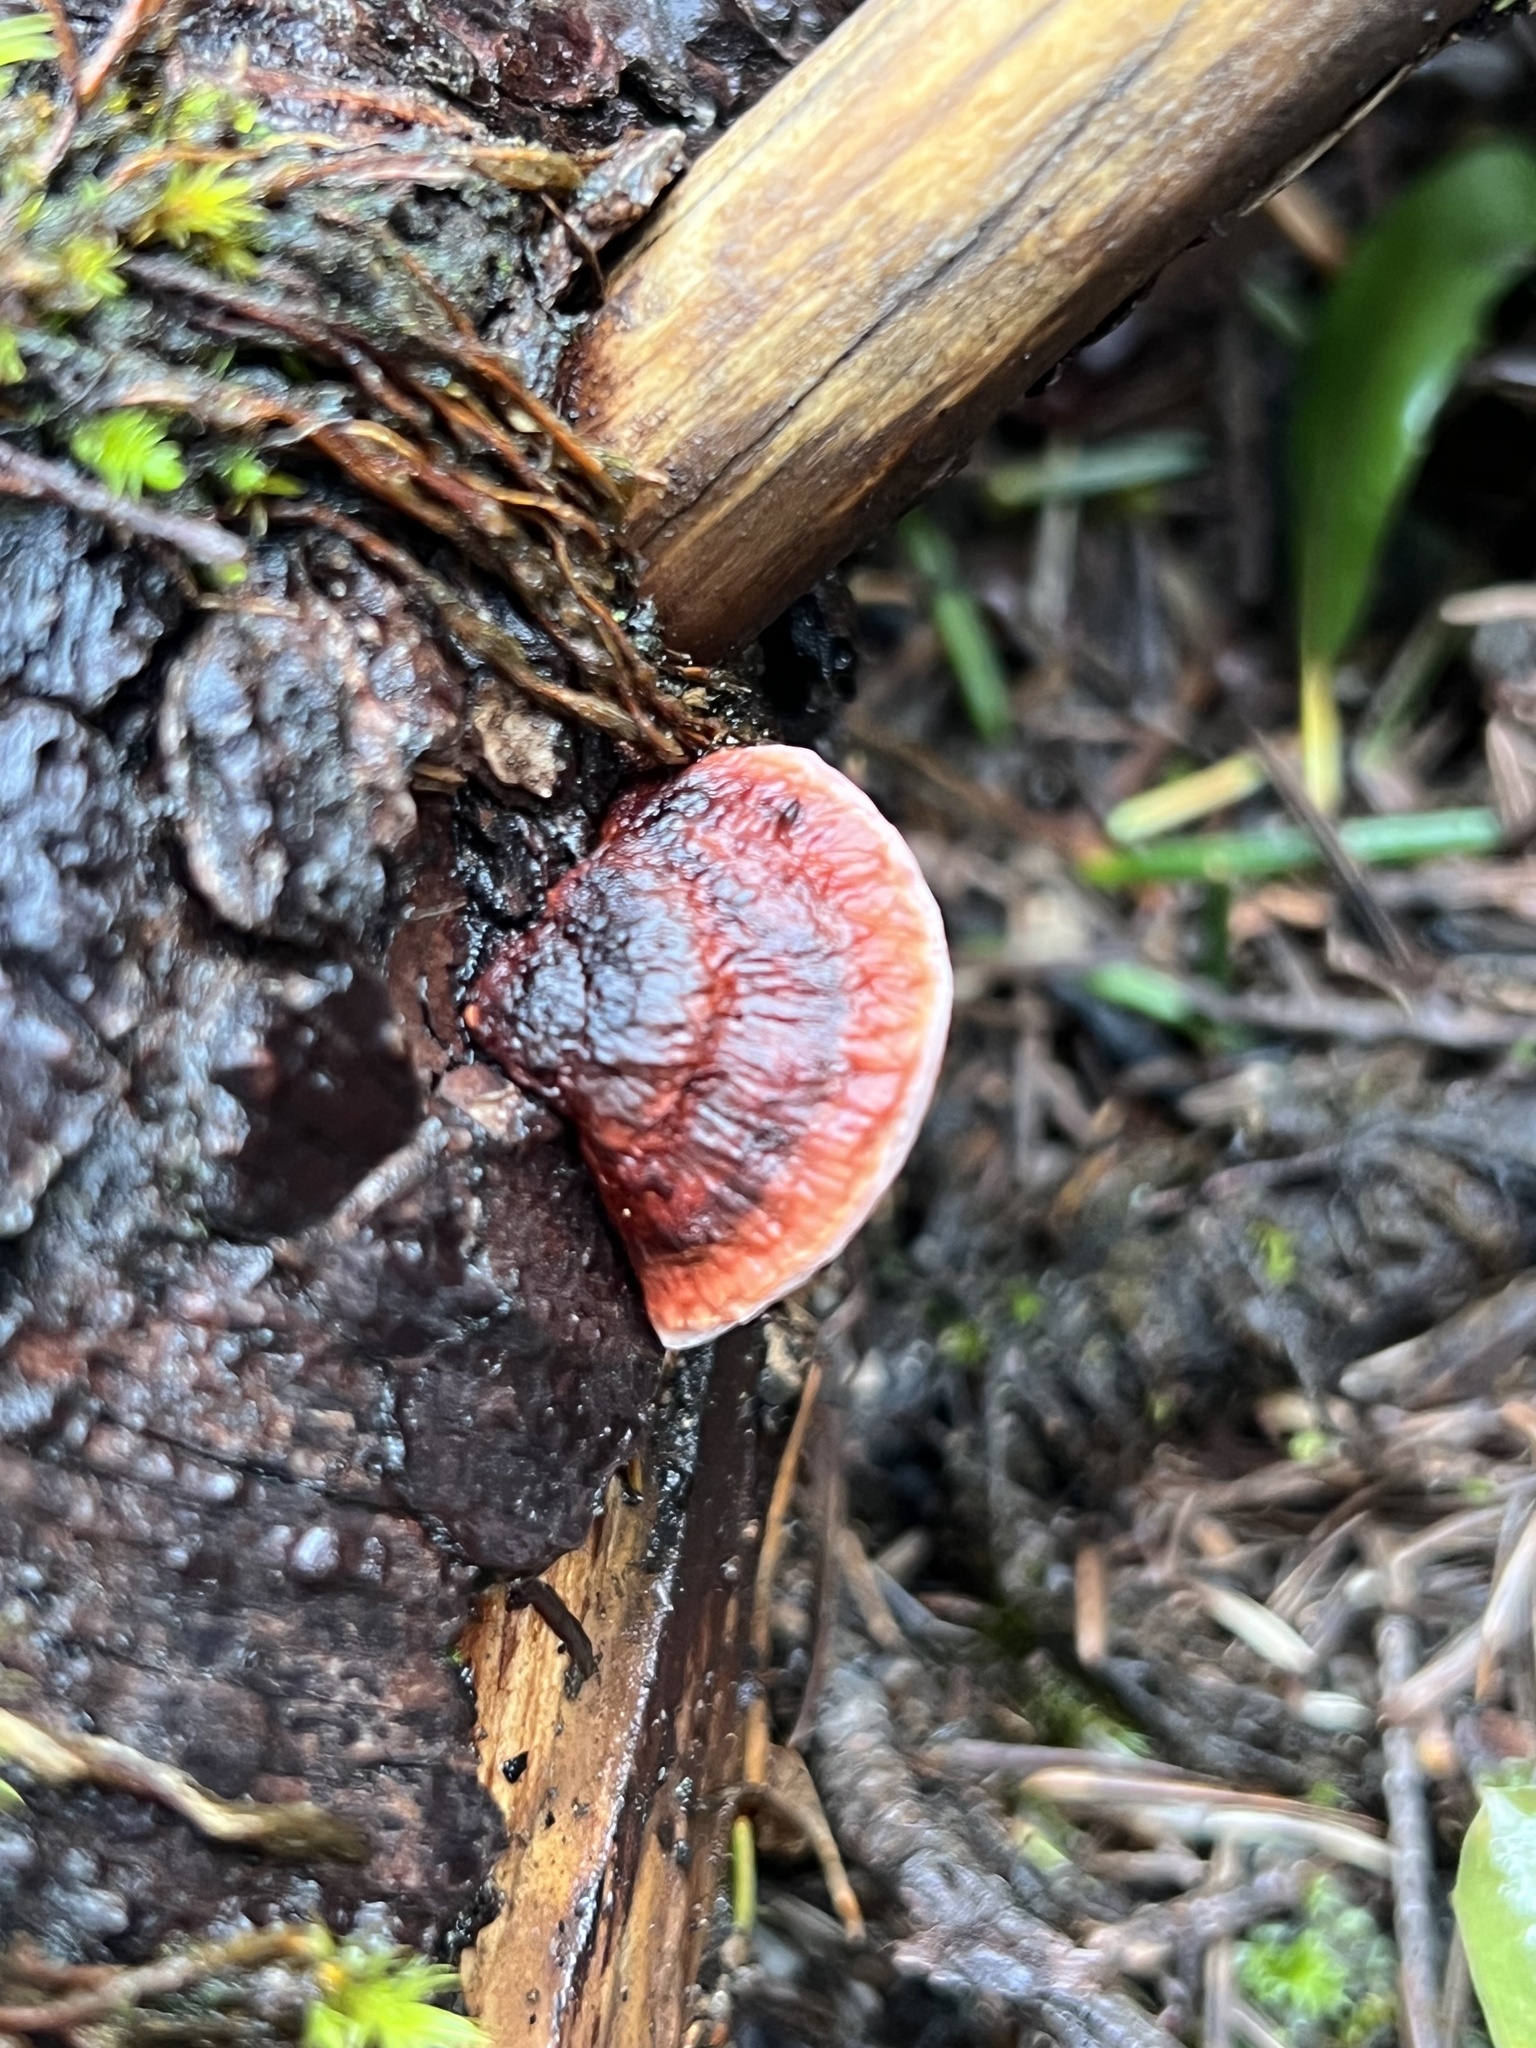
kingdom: Fungi
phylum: Basidiomycota
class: Agaricomycetes
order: Polyporales
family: Fomitopsidaceae
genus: Rhodofomes
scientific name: Rhodofomes cajanderi
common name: Rosy conk
